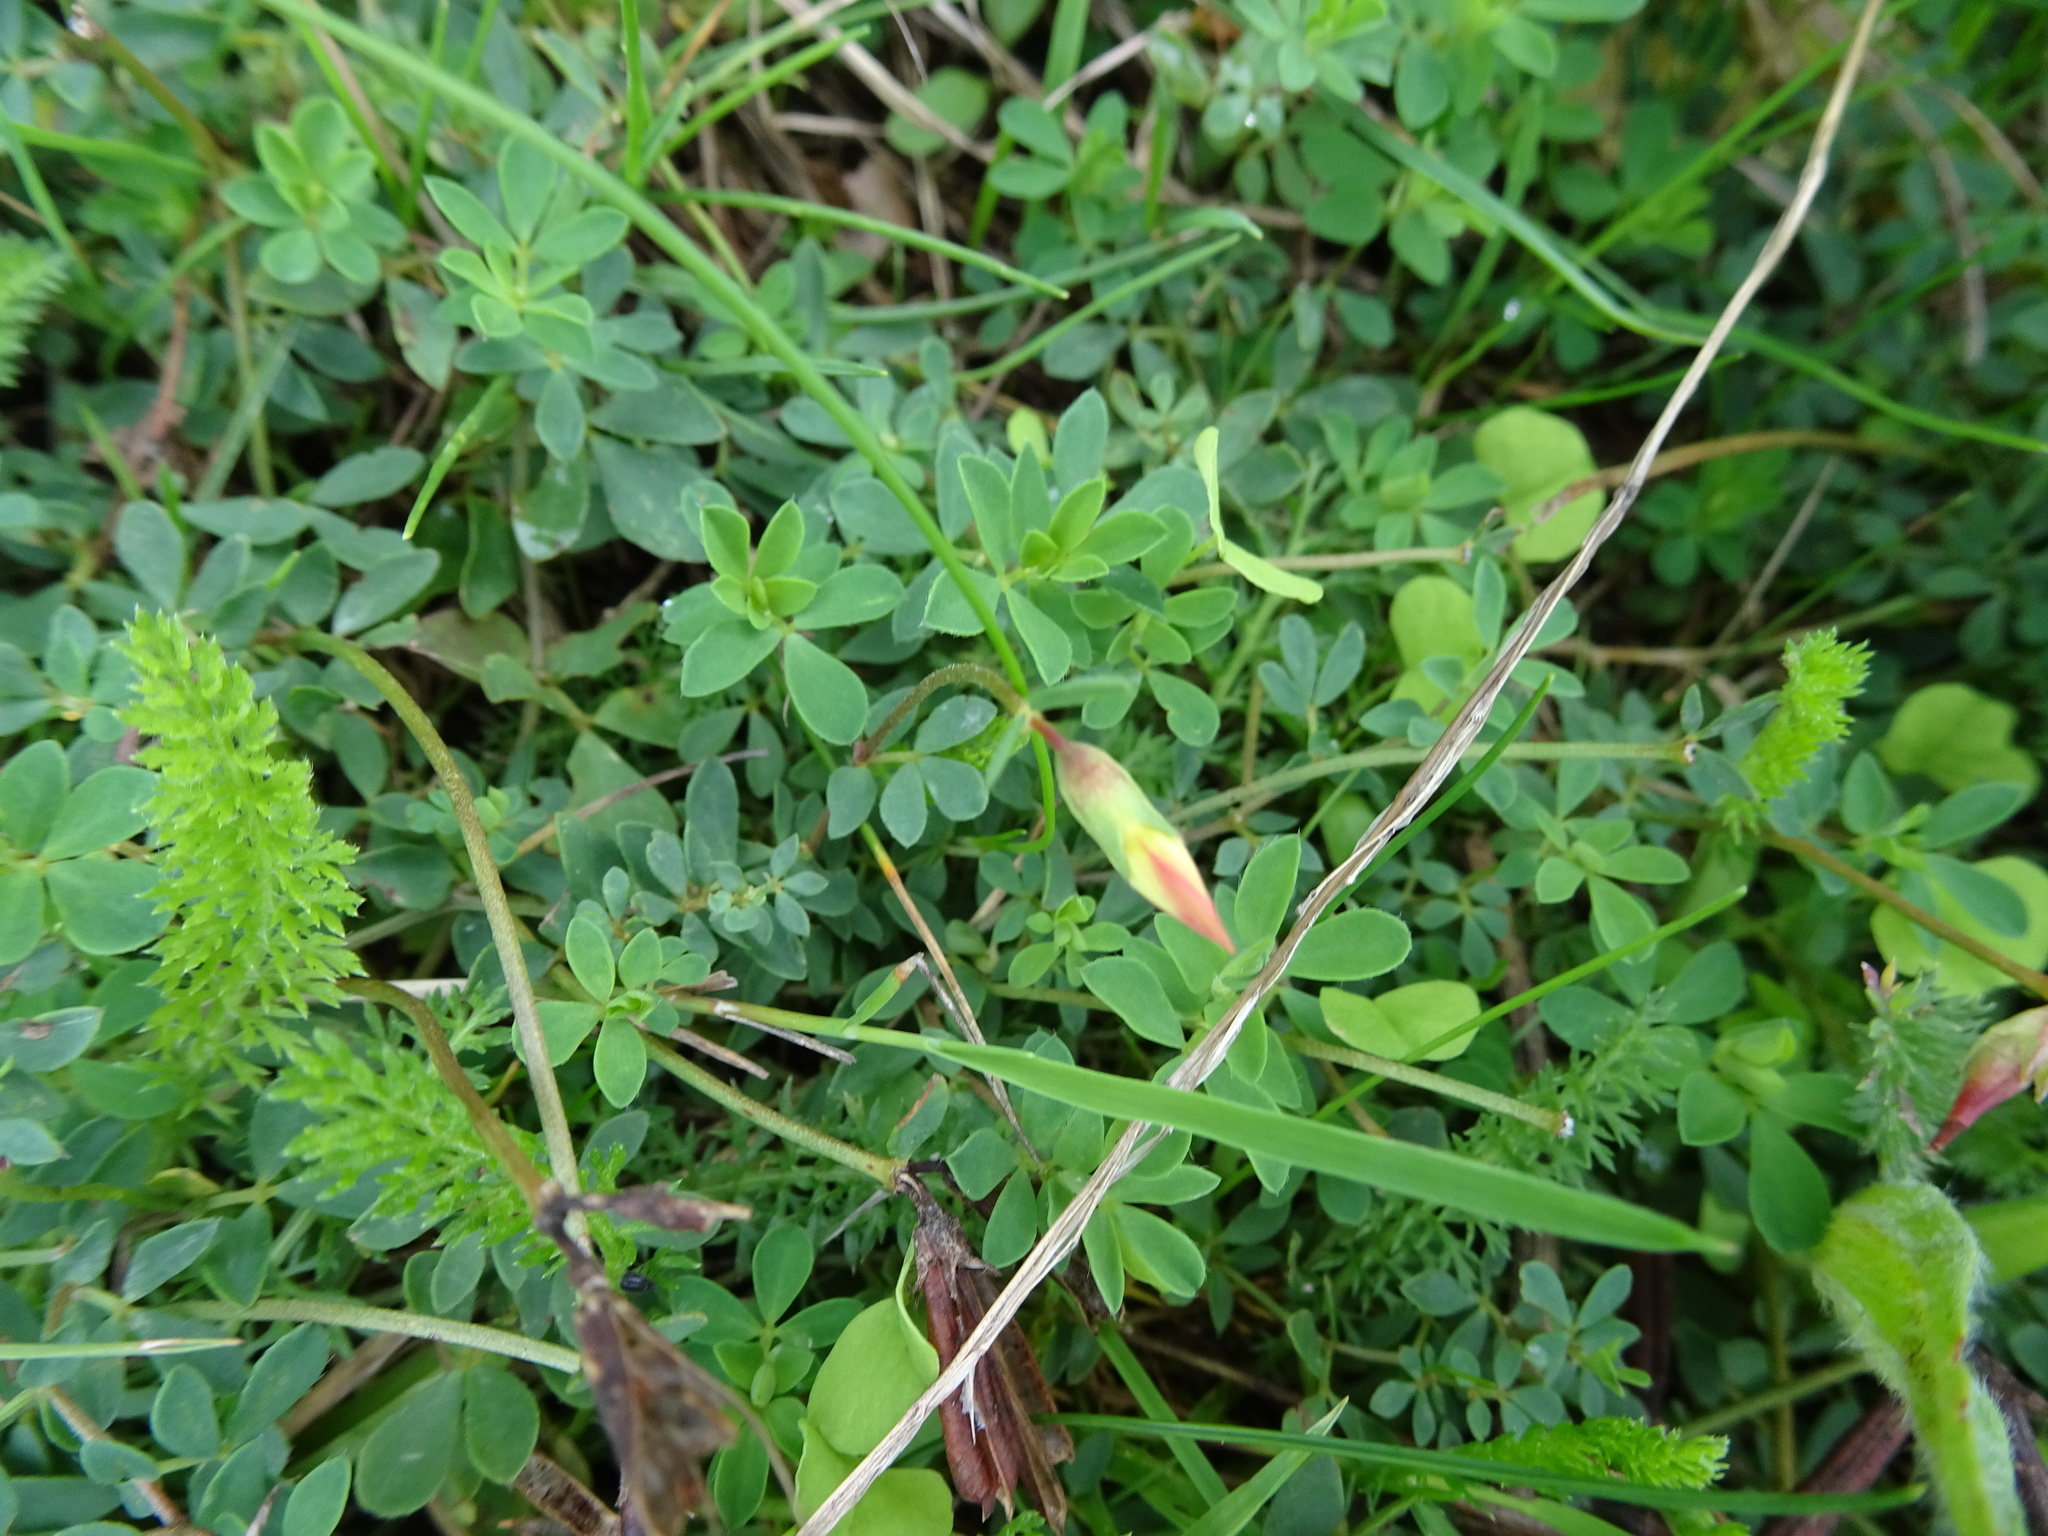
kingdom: Plantae
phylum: Tracheophyta
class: Magnoliopsida
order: Fabales
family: Fabaceae
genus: Lotus
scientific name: Lotus corniculatus
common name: Common bird's-foot-trefoil
